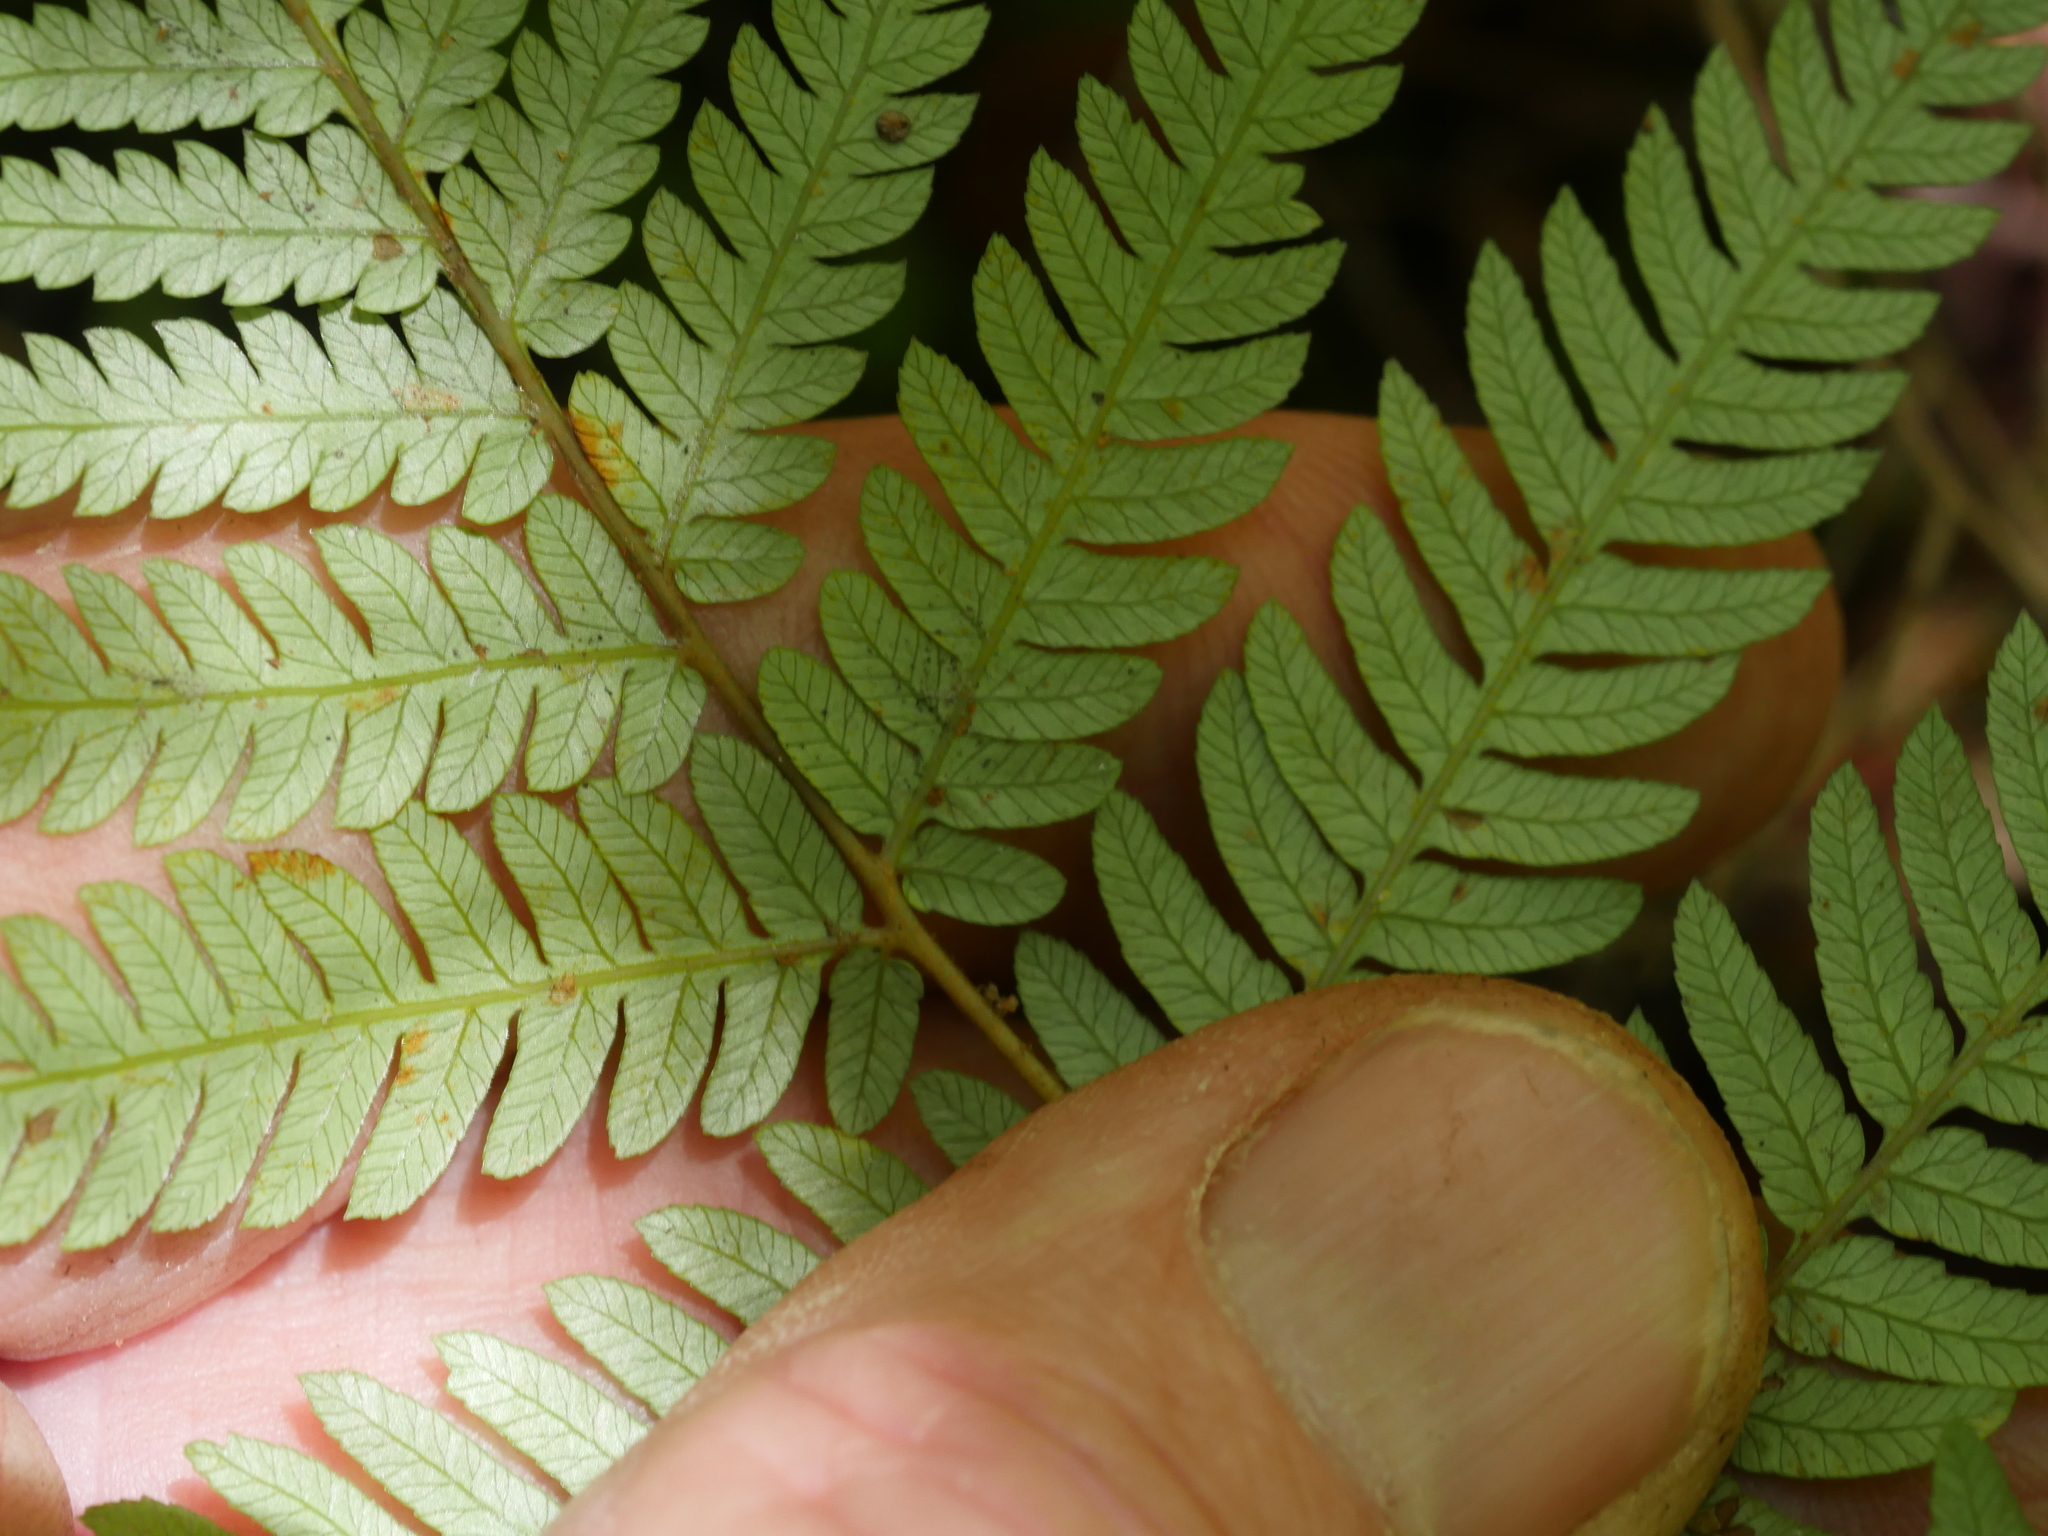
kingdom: Plantae
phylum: Tracheophyta
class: Polypodiopsida
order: Cyatheales
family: Cyatheaceae
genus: Alsophila
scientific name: Alsophila dealbata
